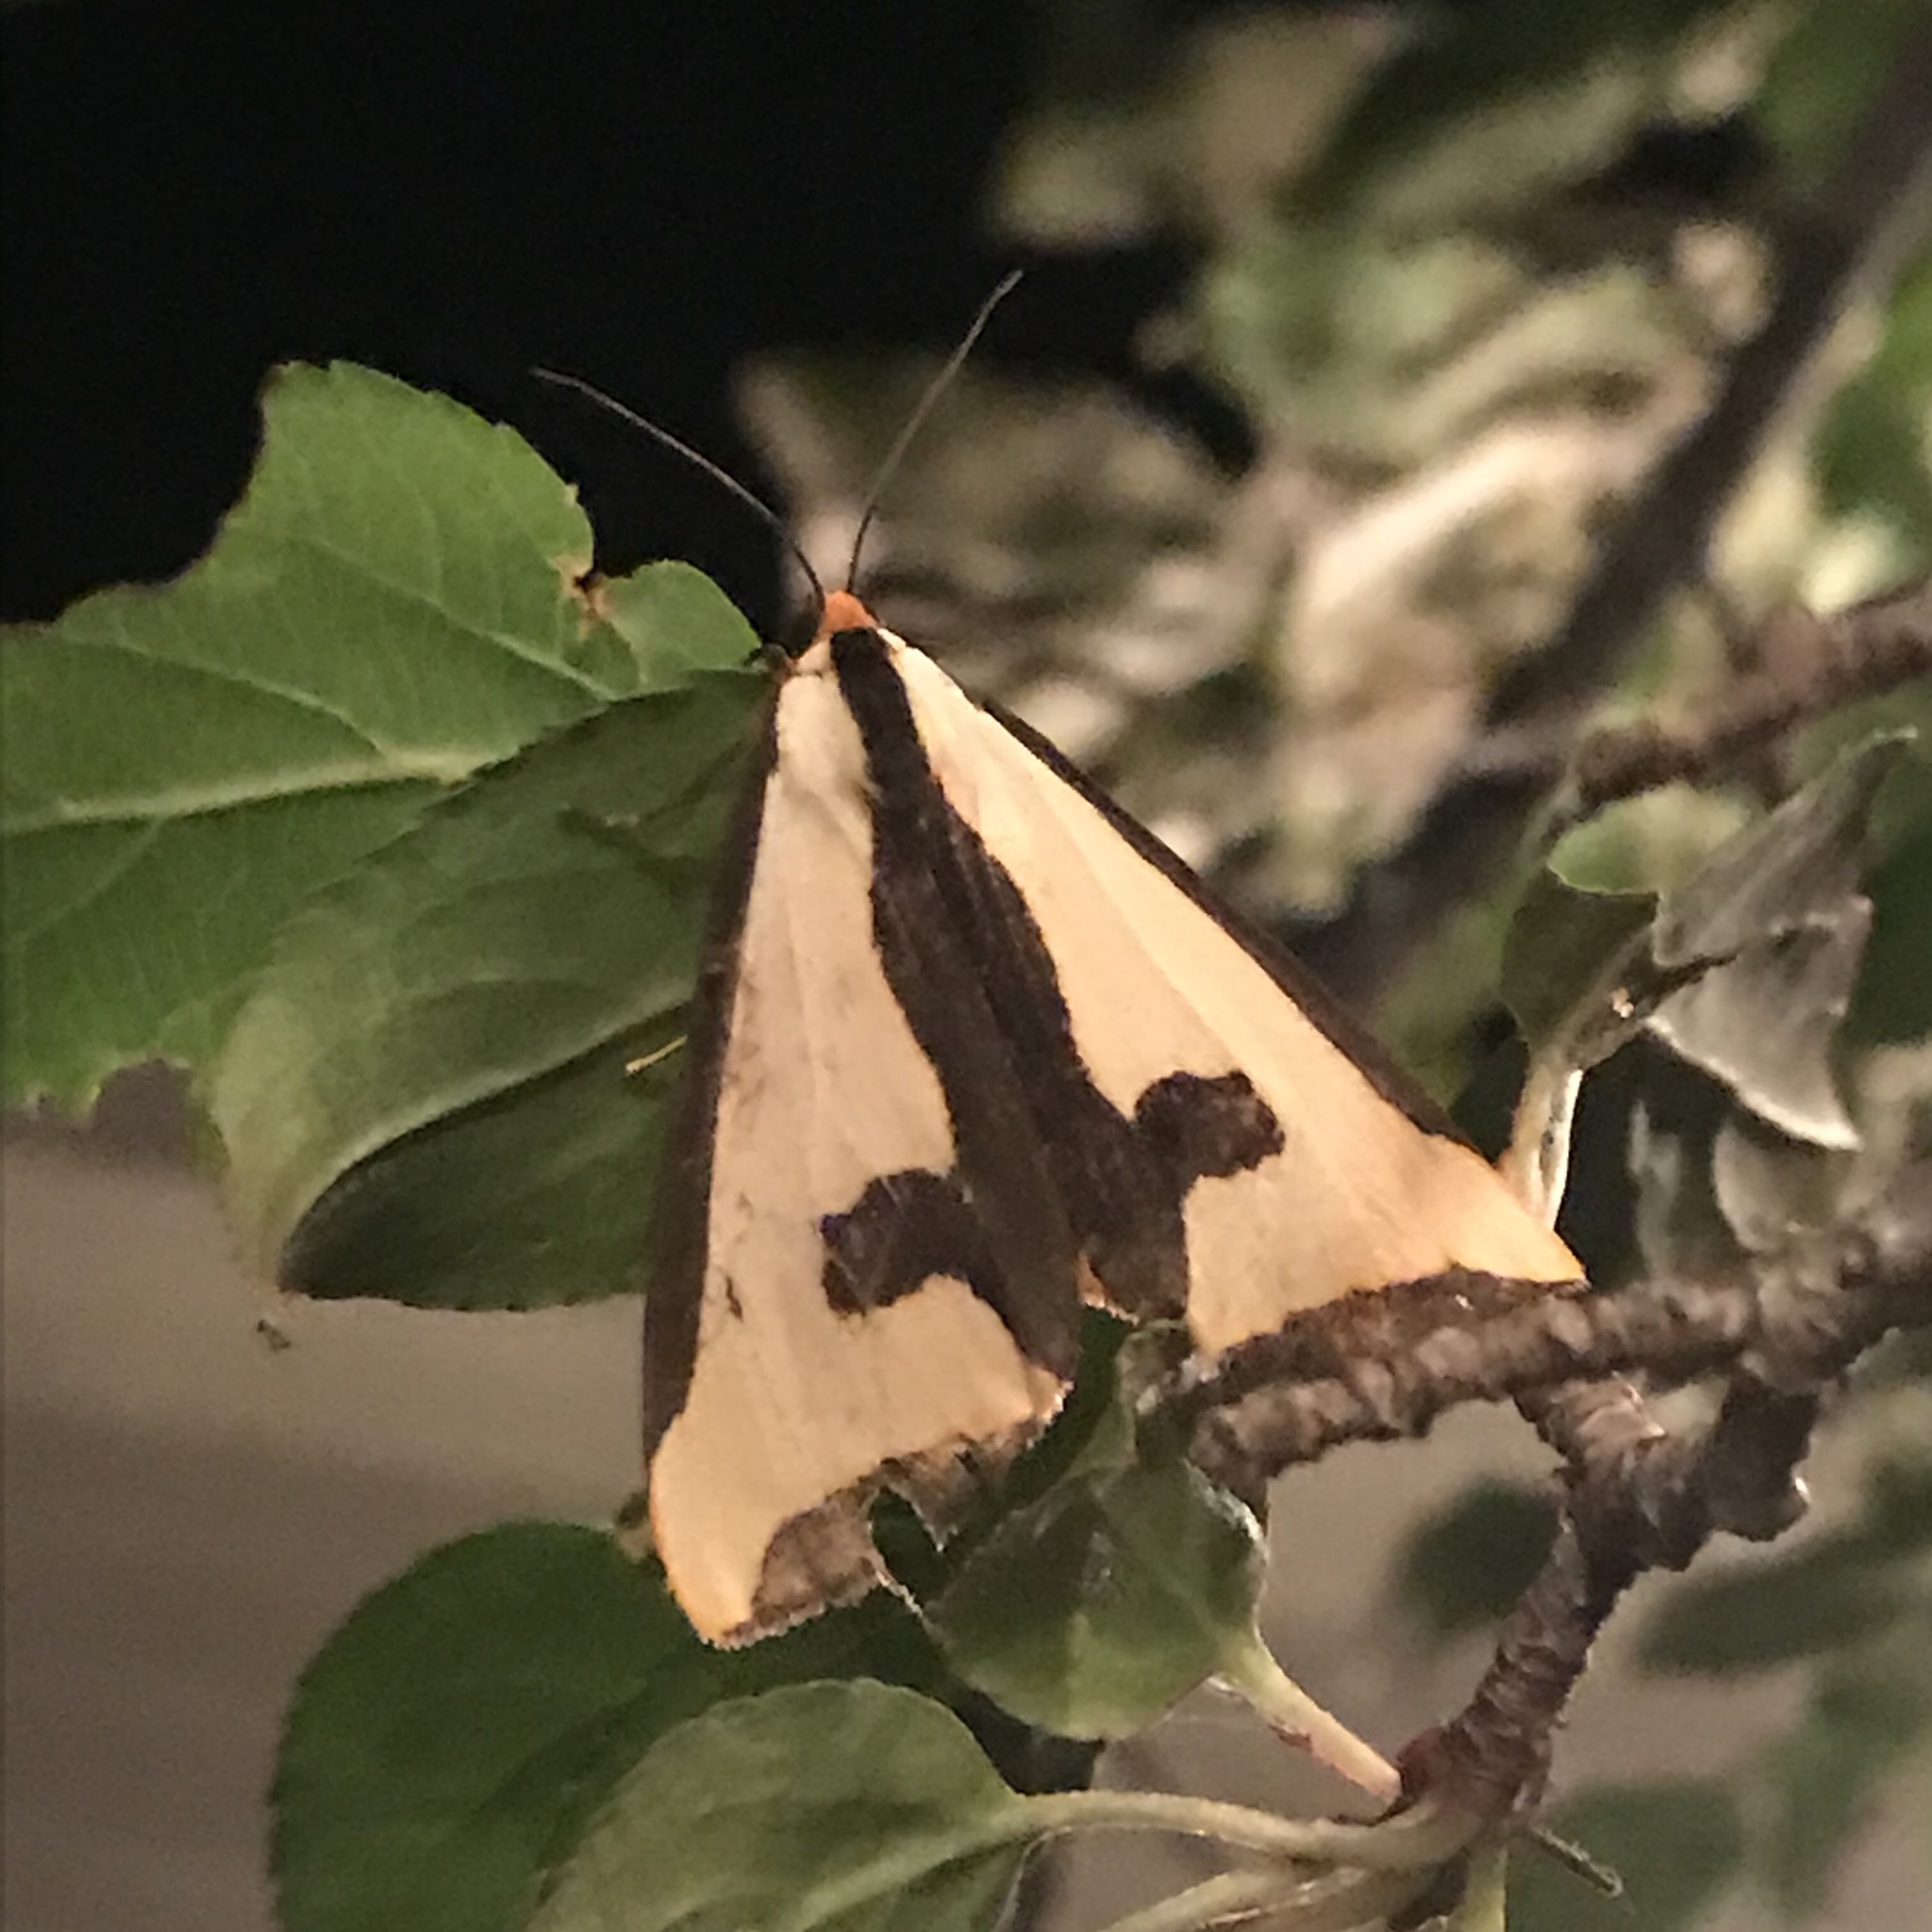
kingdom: Animalia
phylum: Arthropoda
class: Insecta
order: Lepidoptera
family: Erebidae
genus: Haploa
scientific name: Haploa clymene
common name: Clymene moth
